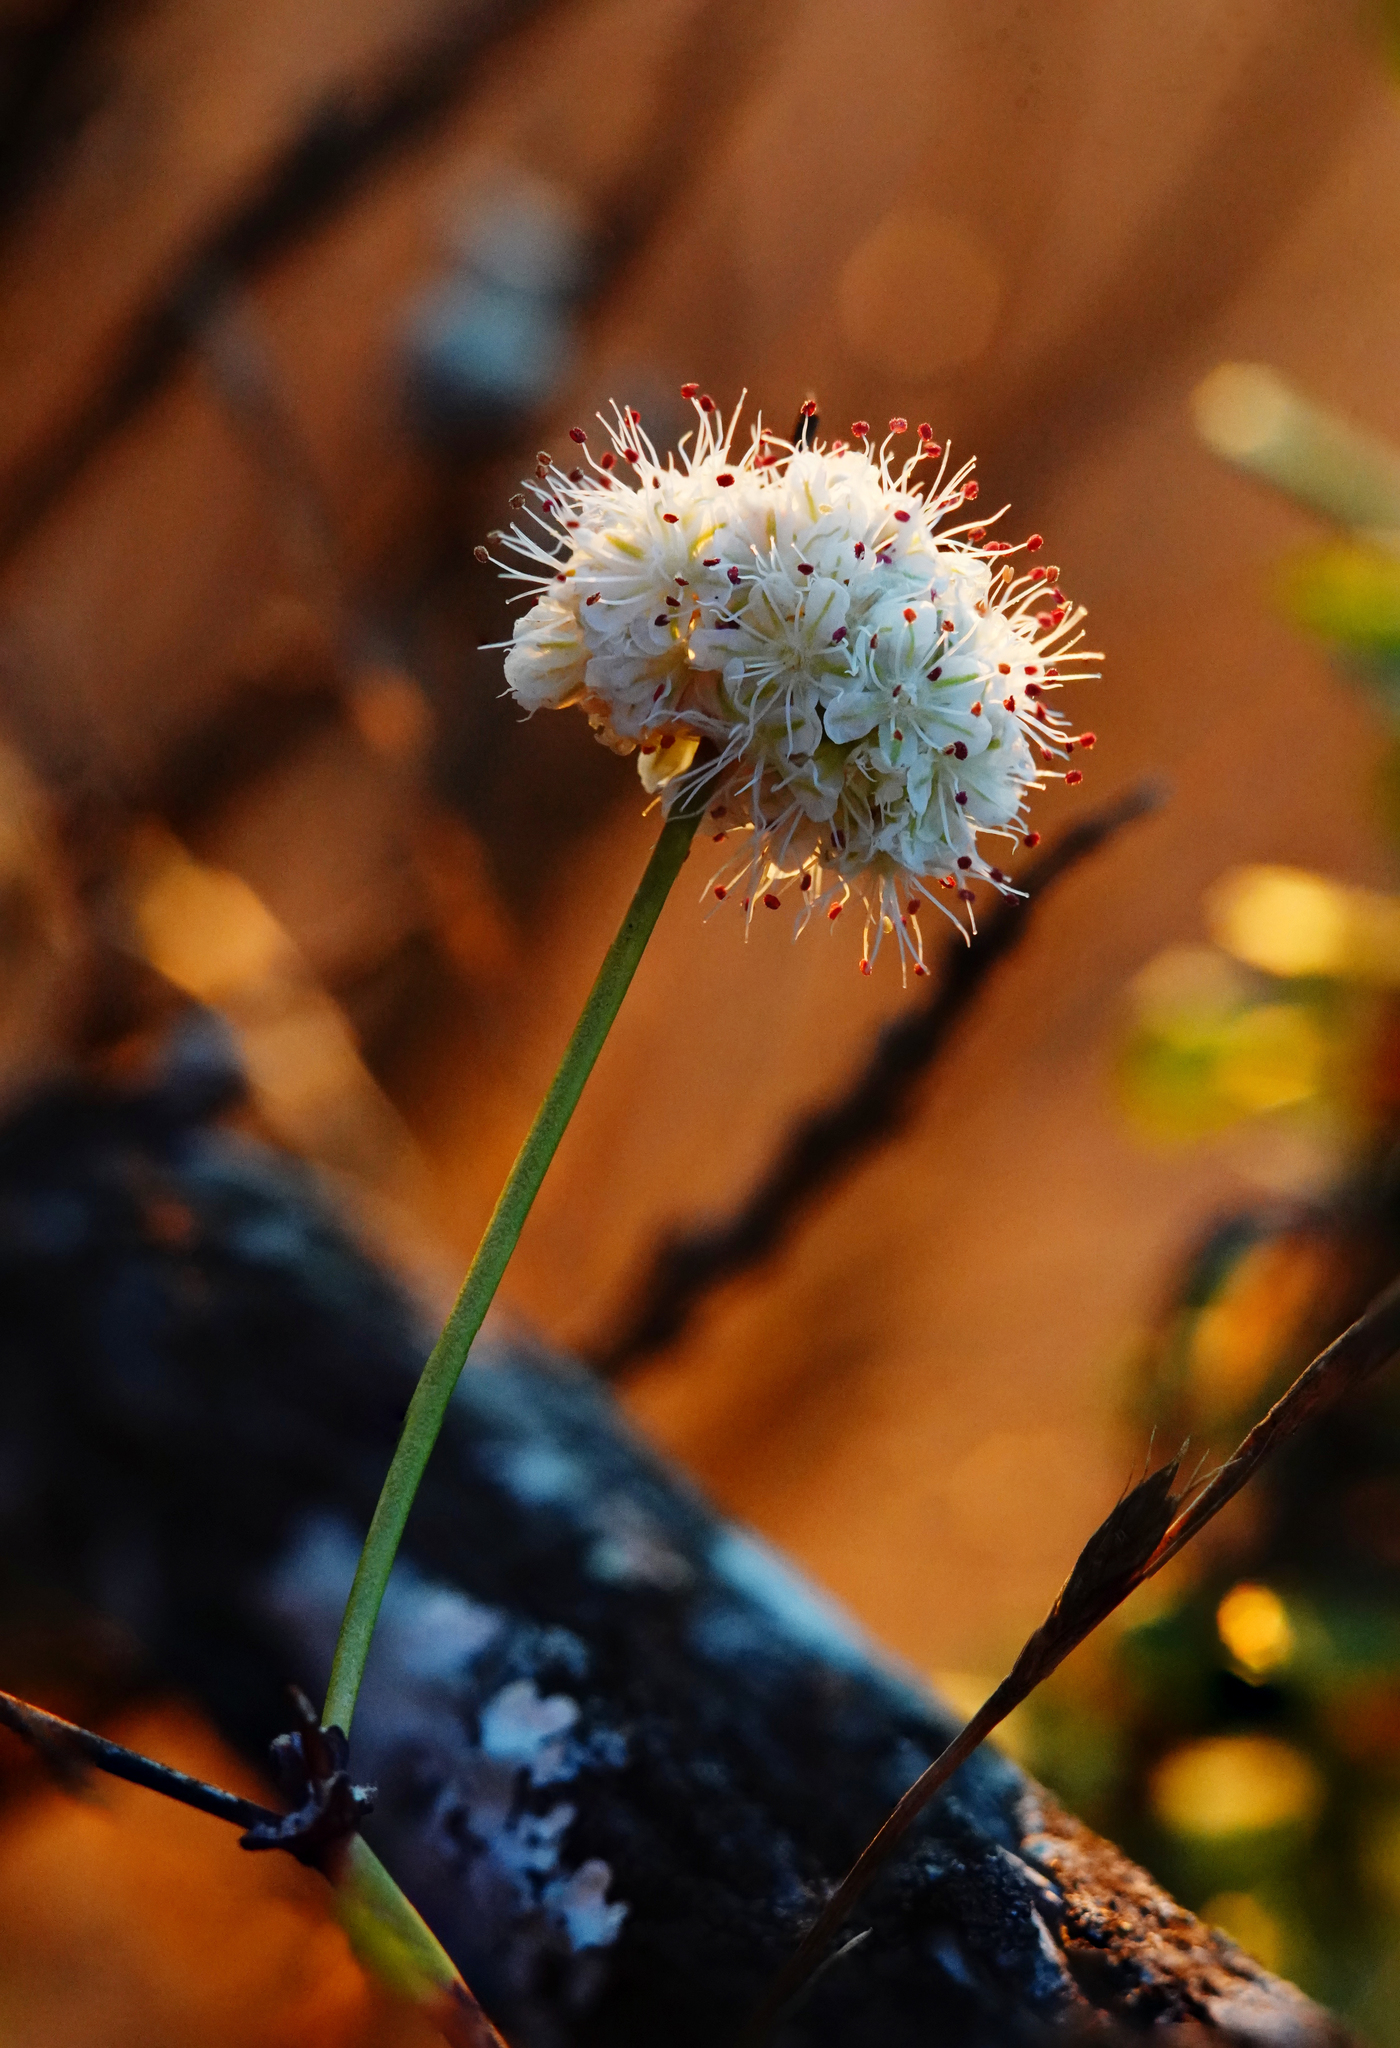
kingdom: Plantae
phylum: Tracheophyta
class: Magnoliopsida
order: Caryophyllales
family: Polygonaceae
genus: Eriogonum
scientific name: Eriogonum nudum
